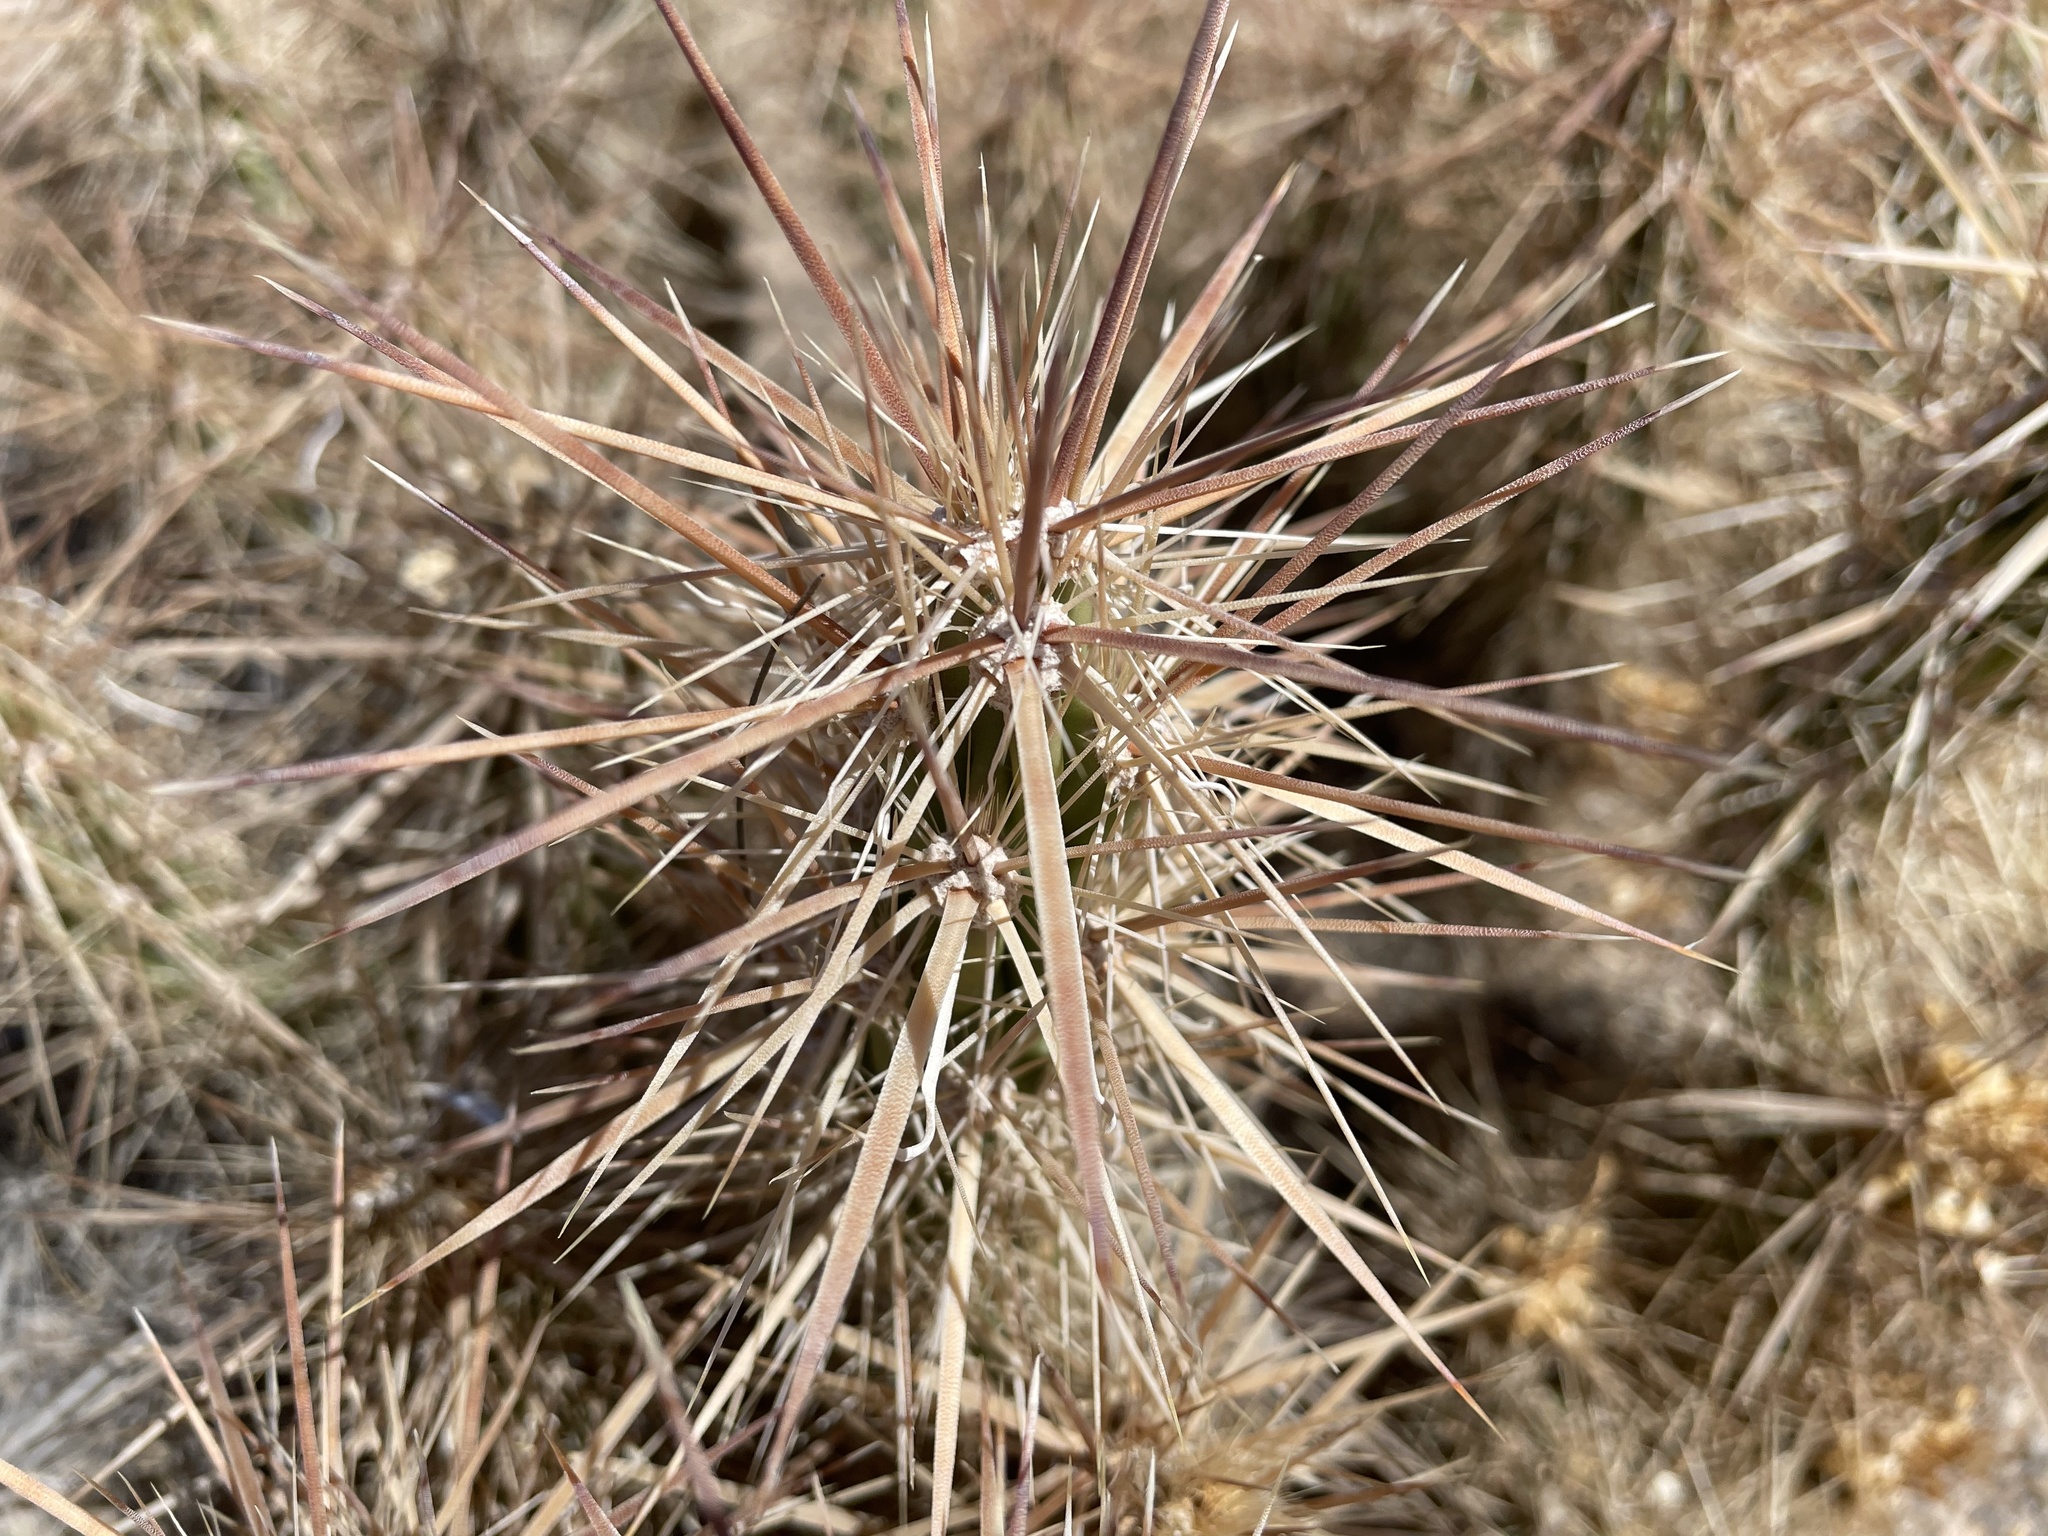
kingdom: Plantae
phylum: Tracheophyta
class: Magnoliopsida
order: Caryophyllales
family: Cactaceae
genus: Grusonia
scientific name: Grusonia kunzei
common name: Wright's club cholla
